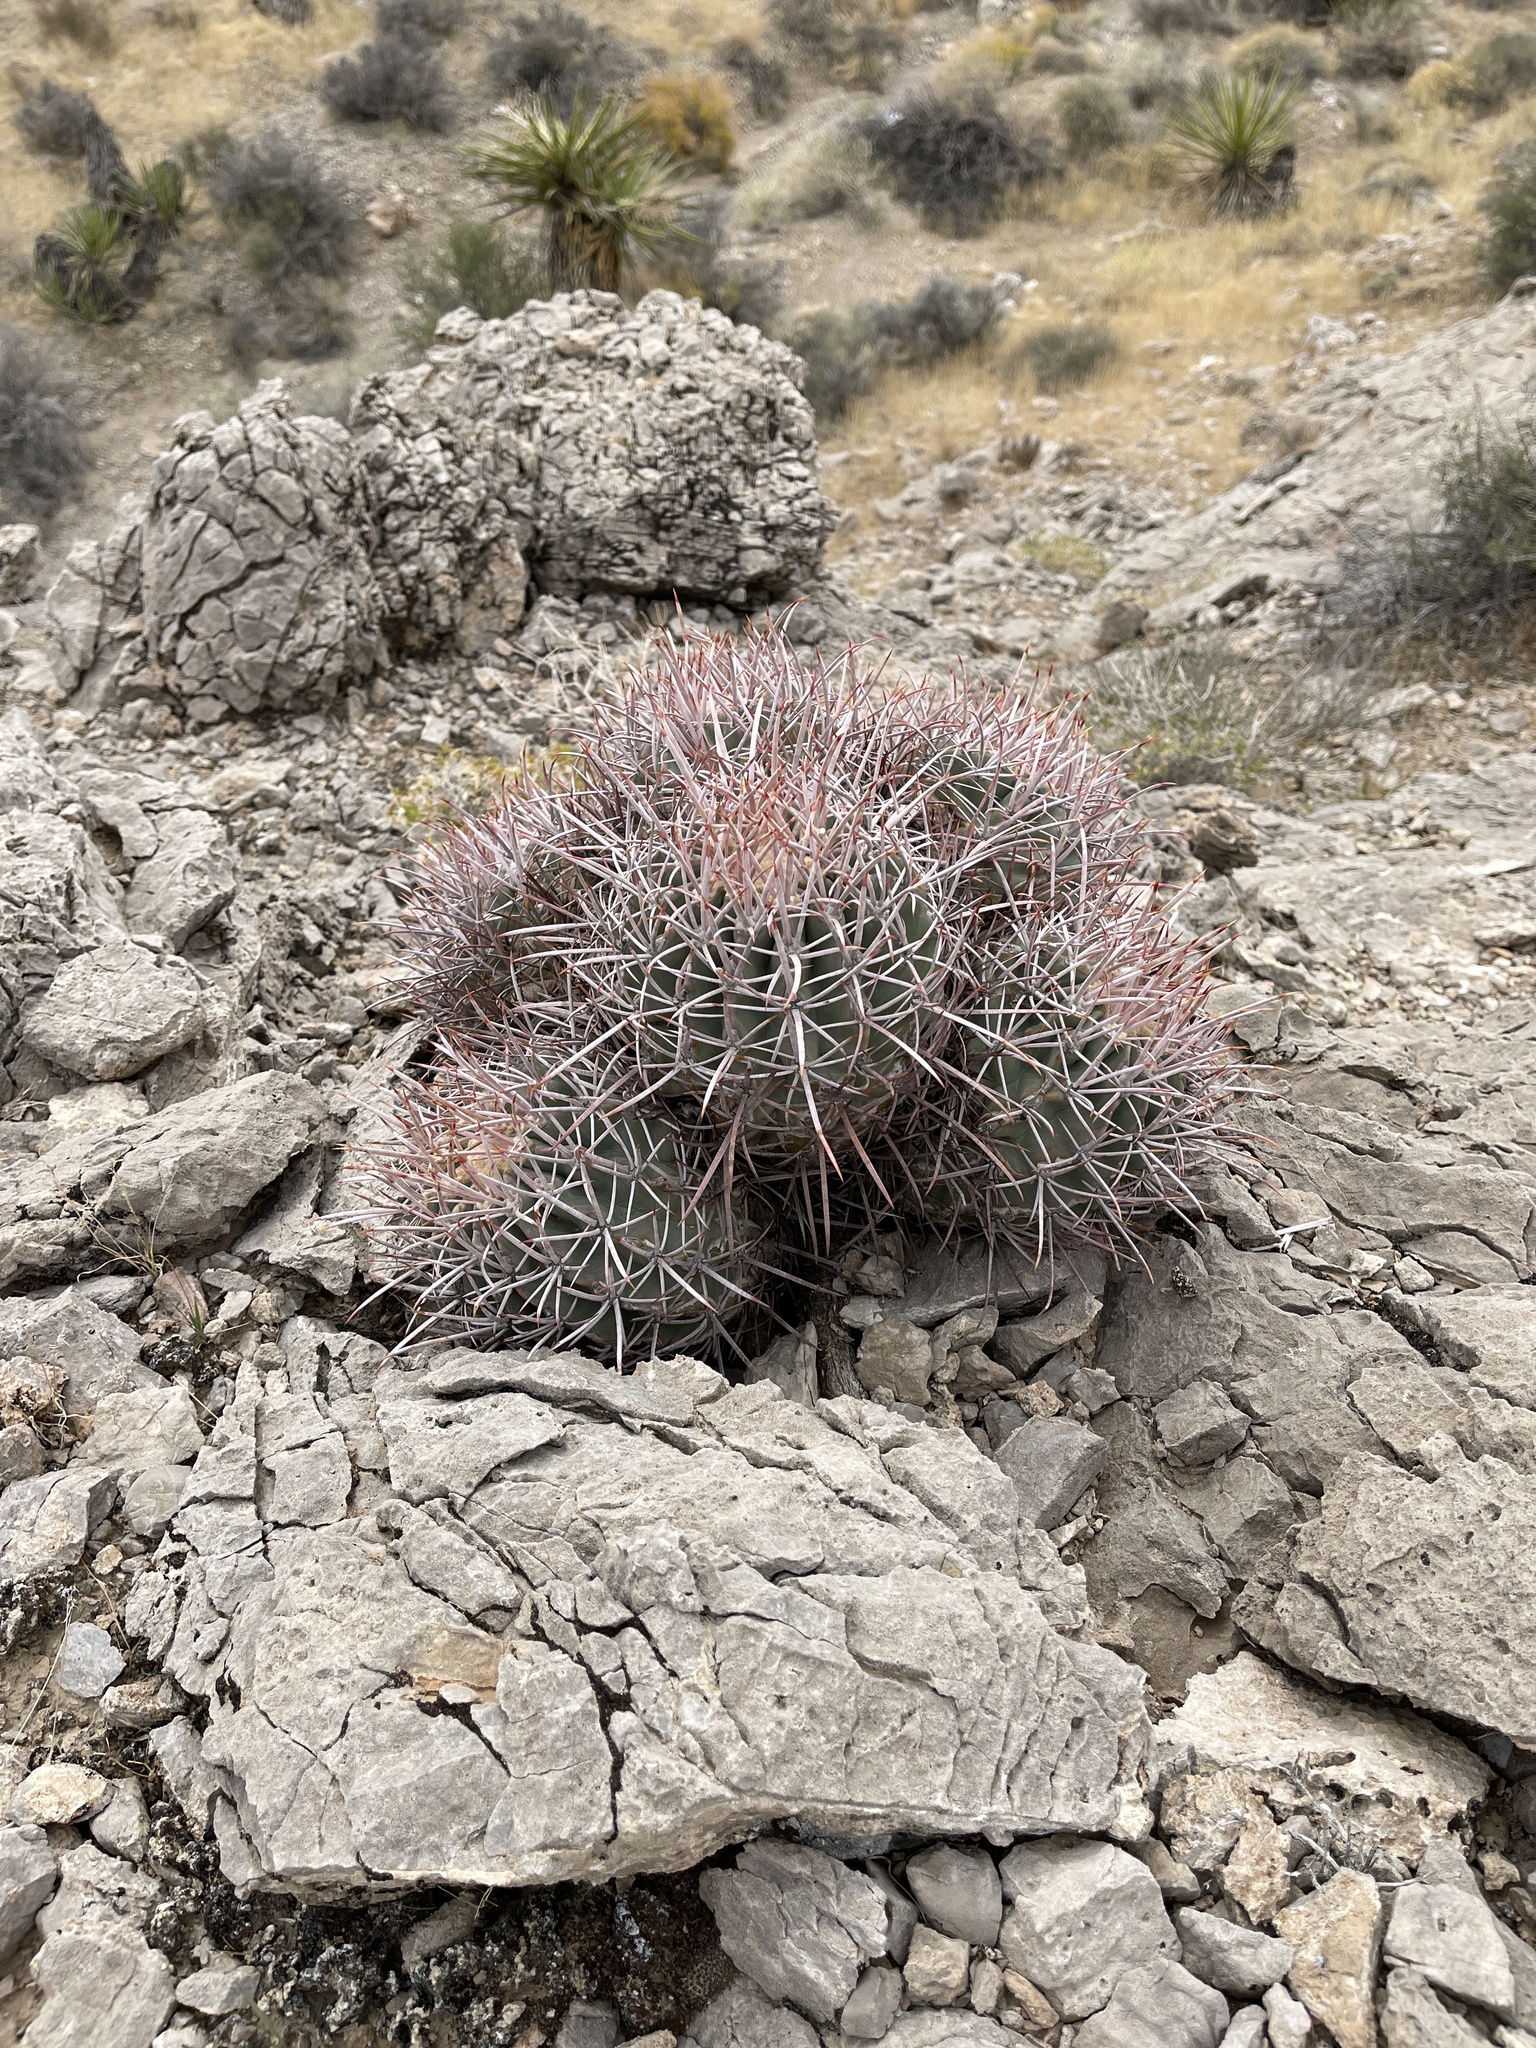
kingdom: Plantae
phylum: Tracheophyta
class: Magnoliopsida
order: Caryophyllales
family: Cactaceae
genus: Echinocactus
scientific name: Echinocactus polycephalus
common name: Cottontop cactus
